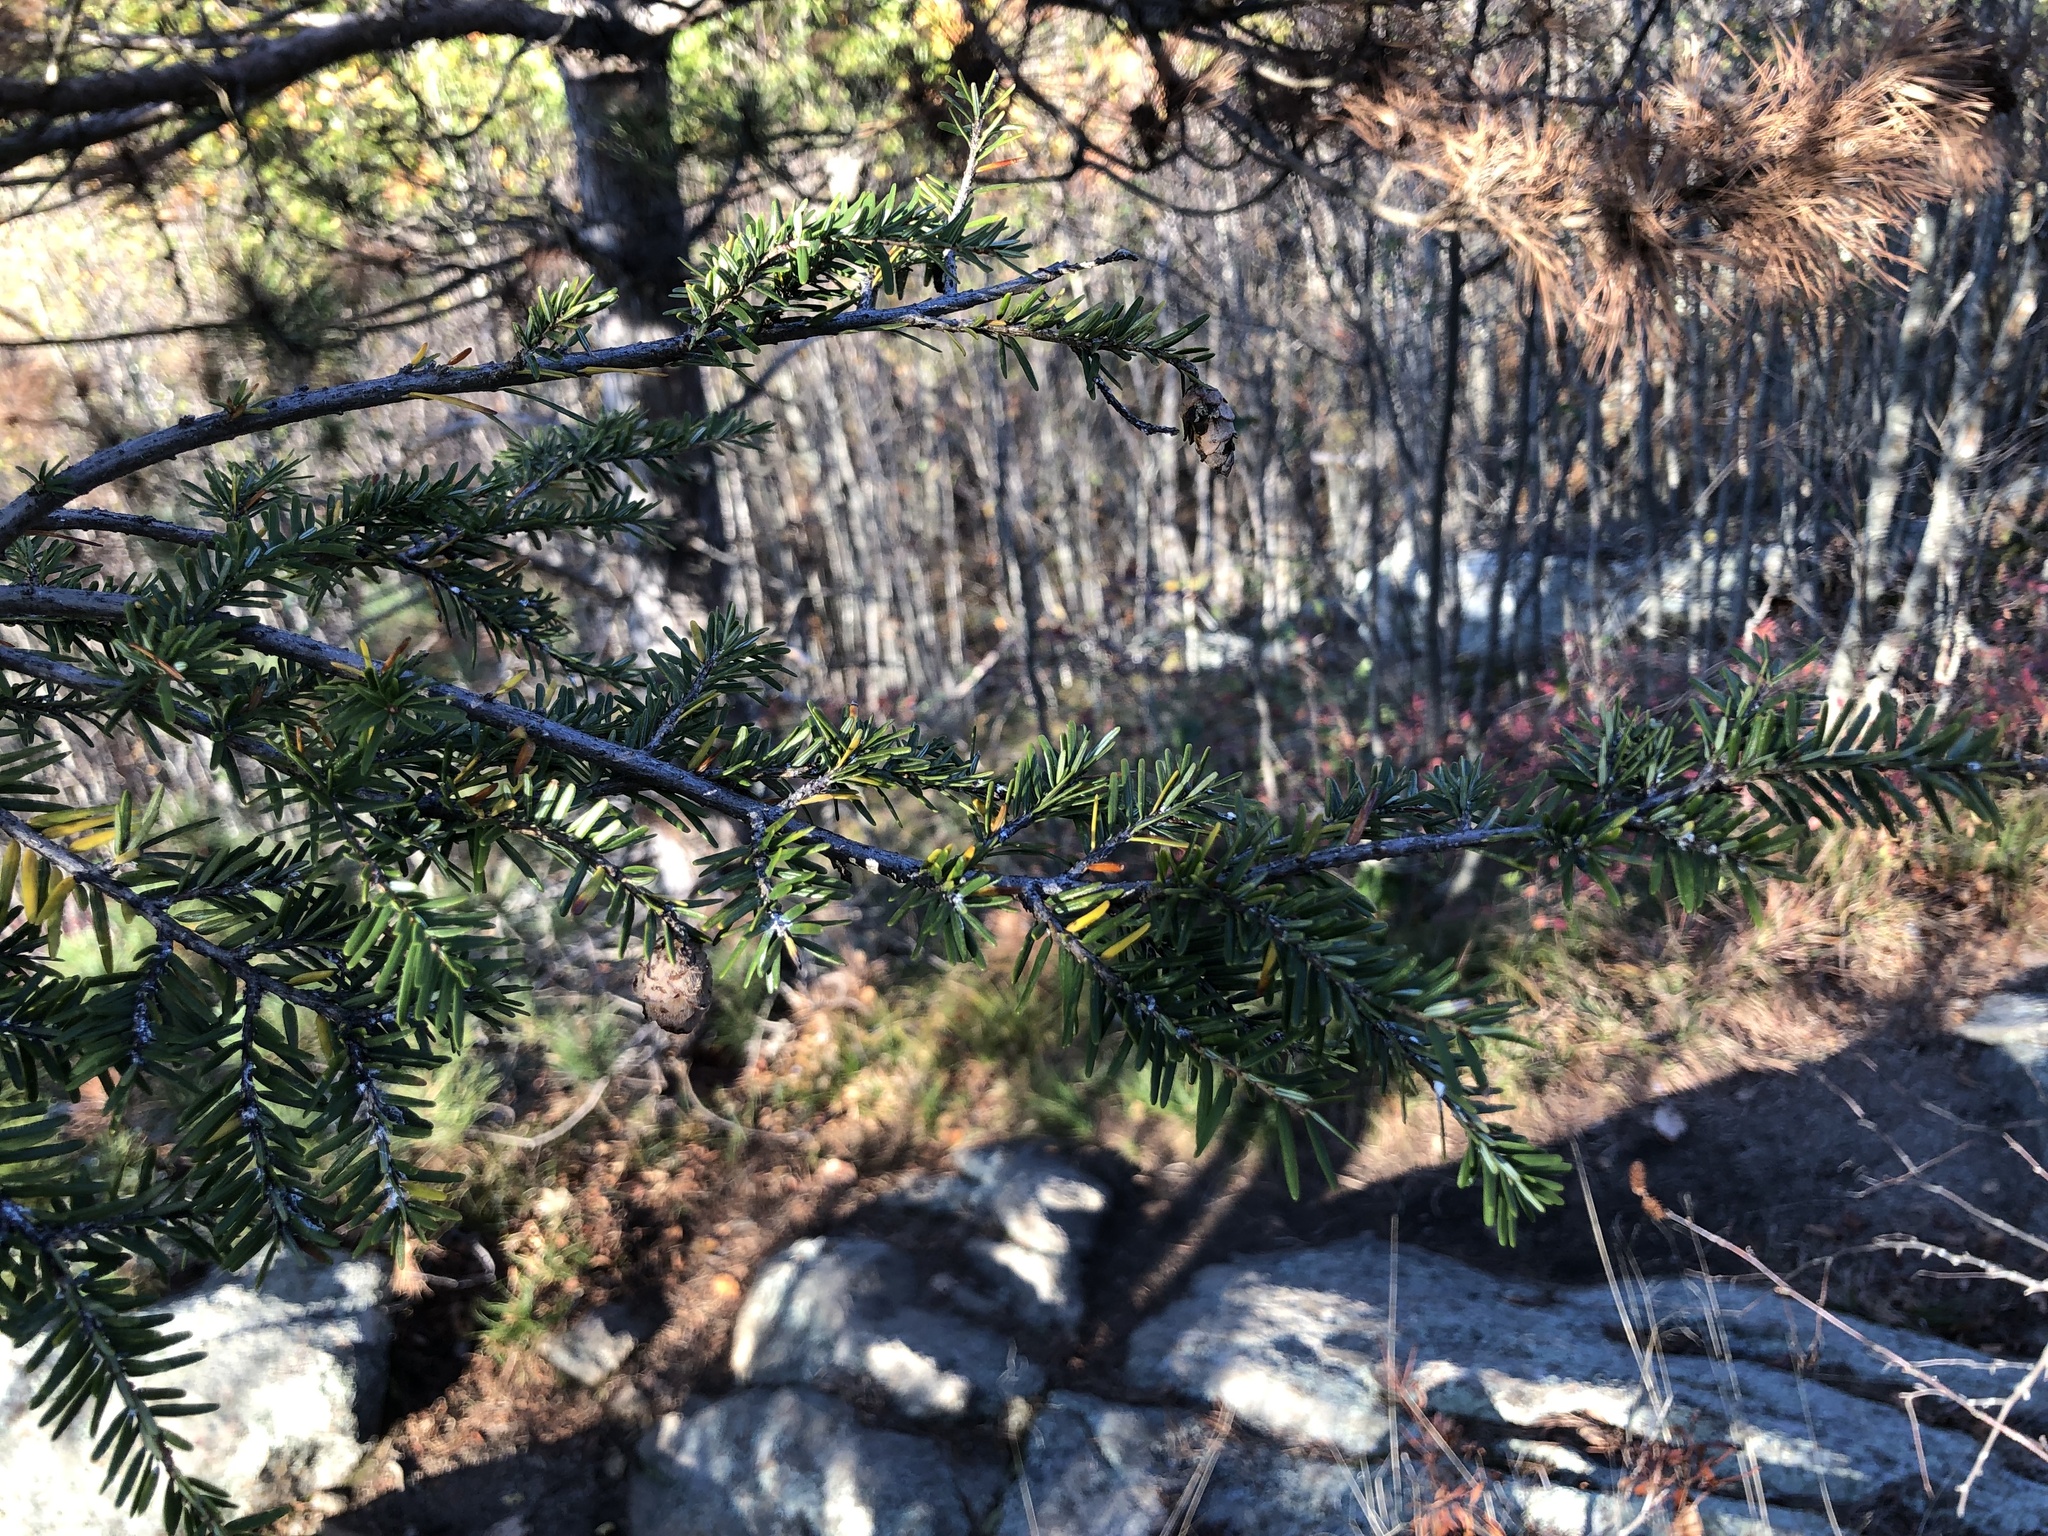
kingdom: Plantae
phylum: Tracheophyta
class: Pinopsida
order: Pinales
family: Pinaceae
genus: Tsuga
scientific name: Tsuga canadensis
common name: Eastern hemlock
